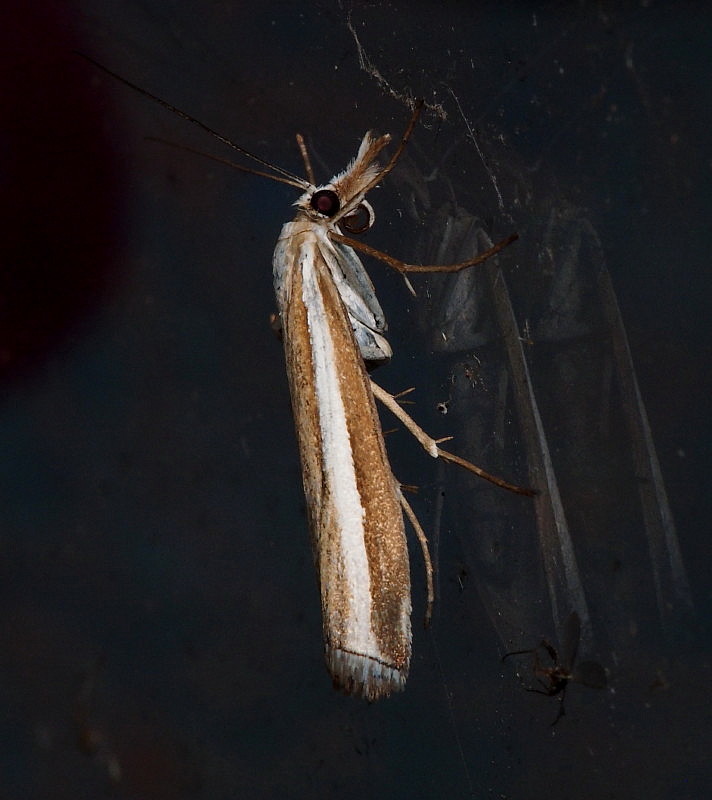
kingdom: Animalia
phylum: Arthropoda
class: Insecta
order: Lepidoptera
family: Crambidae
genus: Orocrambus
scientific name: Orocrambus vittellus
